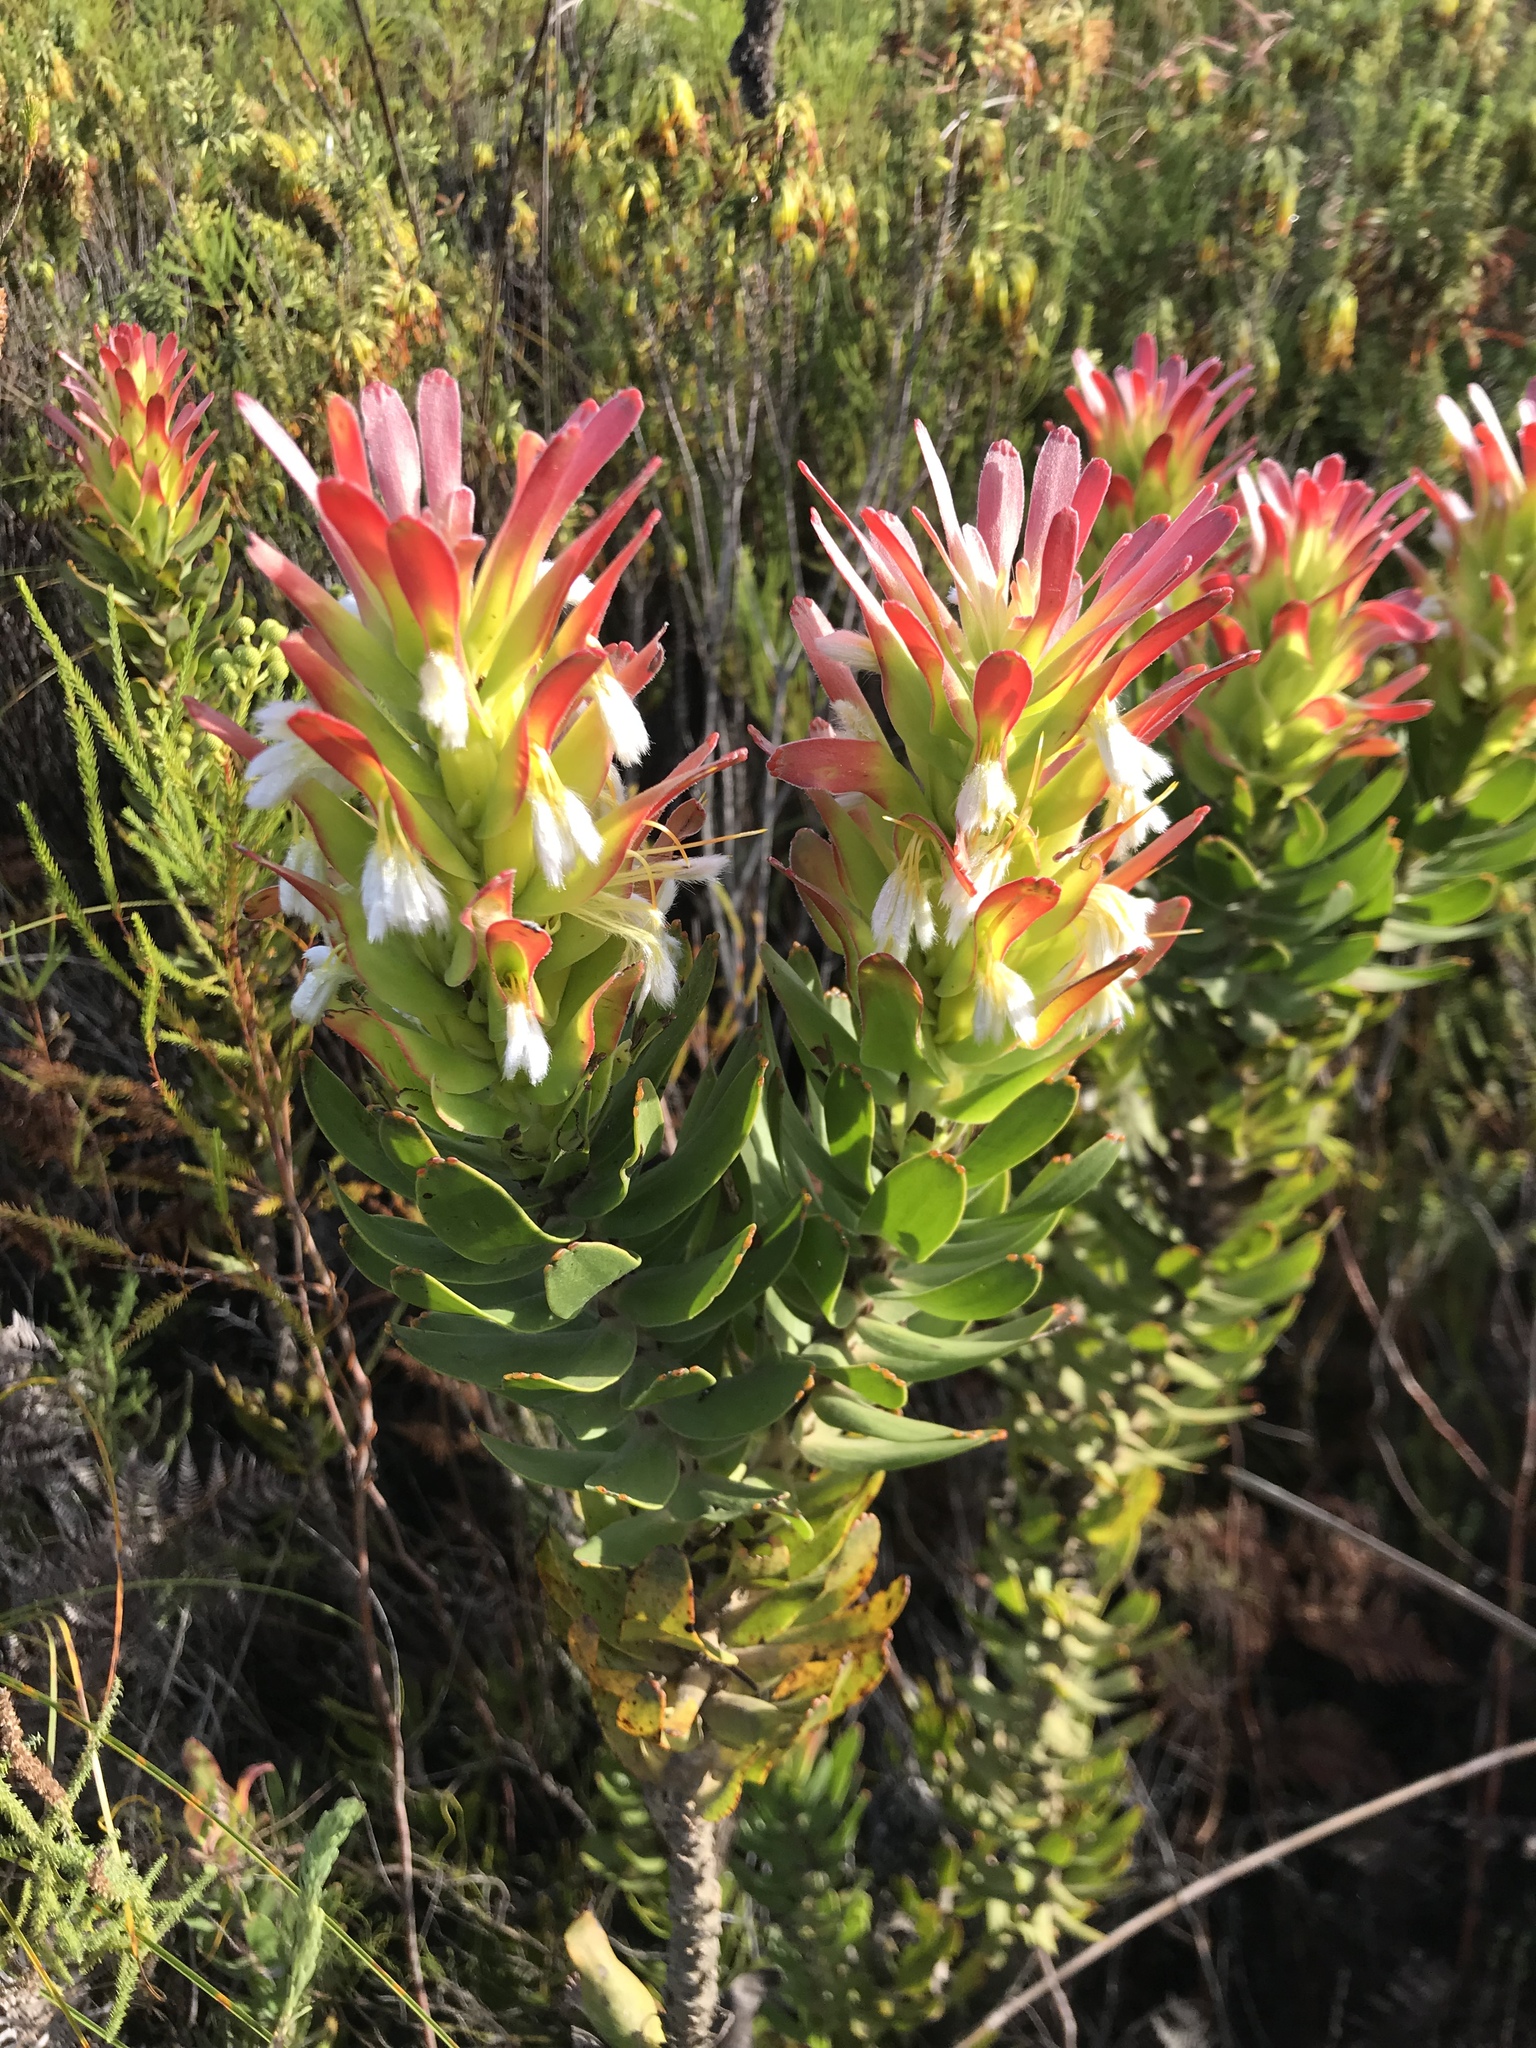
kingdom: Plantae
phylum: Tracheophyta
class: Magnoliopsida
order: Proteales
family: Proteaceae
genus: Mimetes
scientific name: Mimetes cucullatus
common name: Common pagoda
